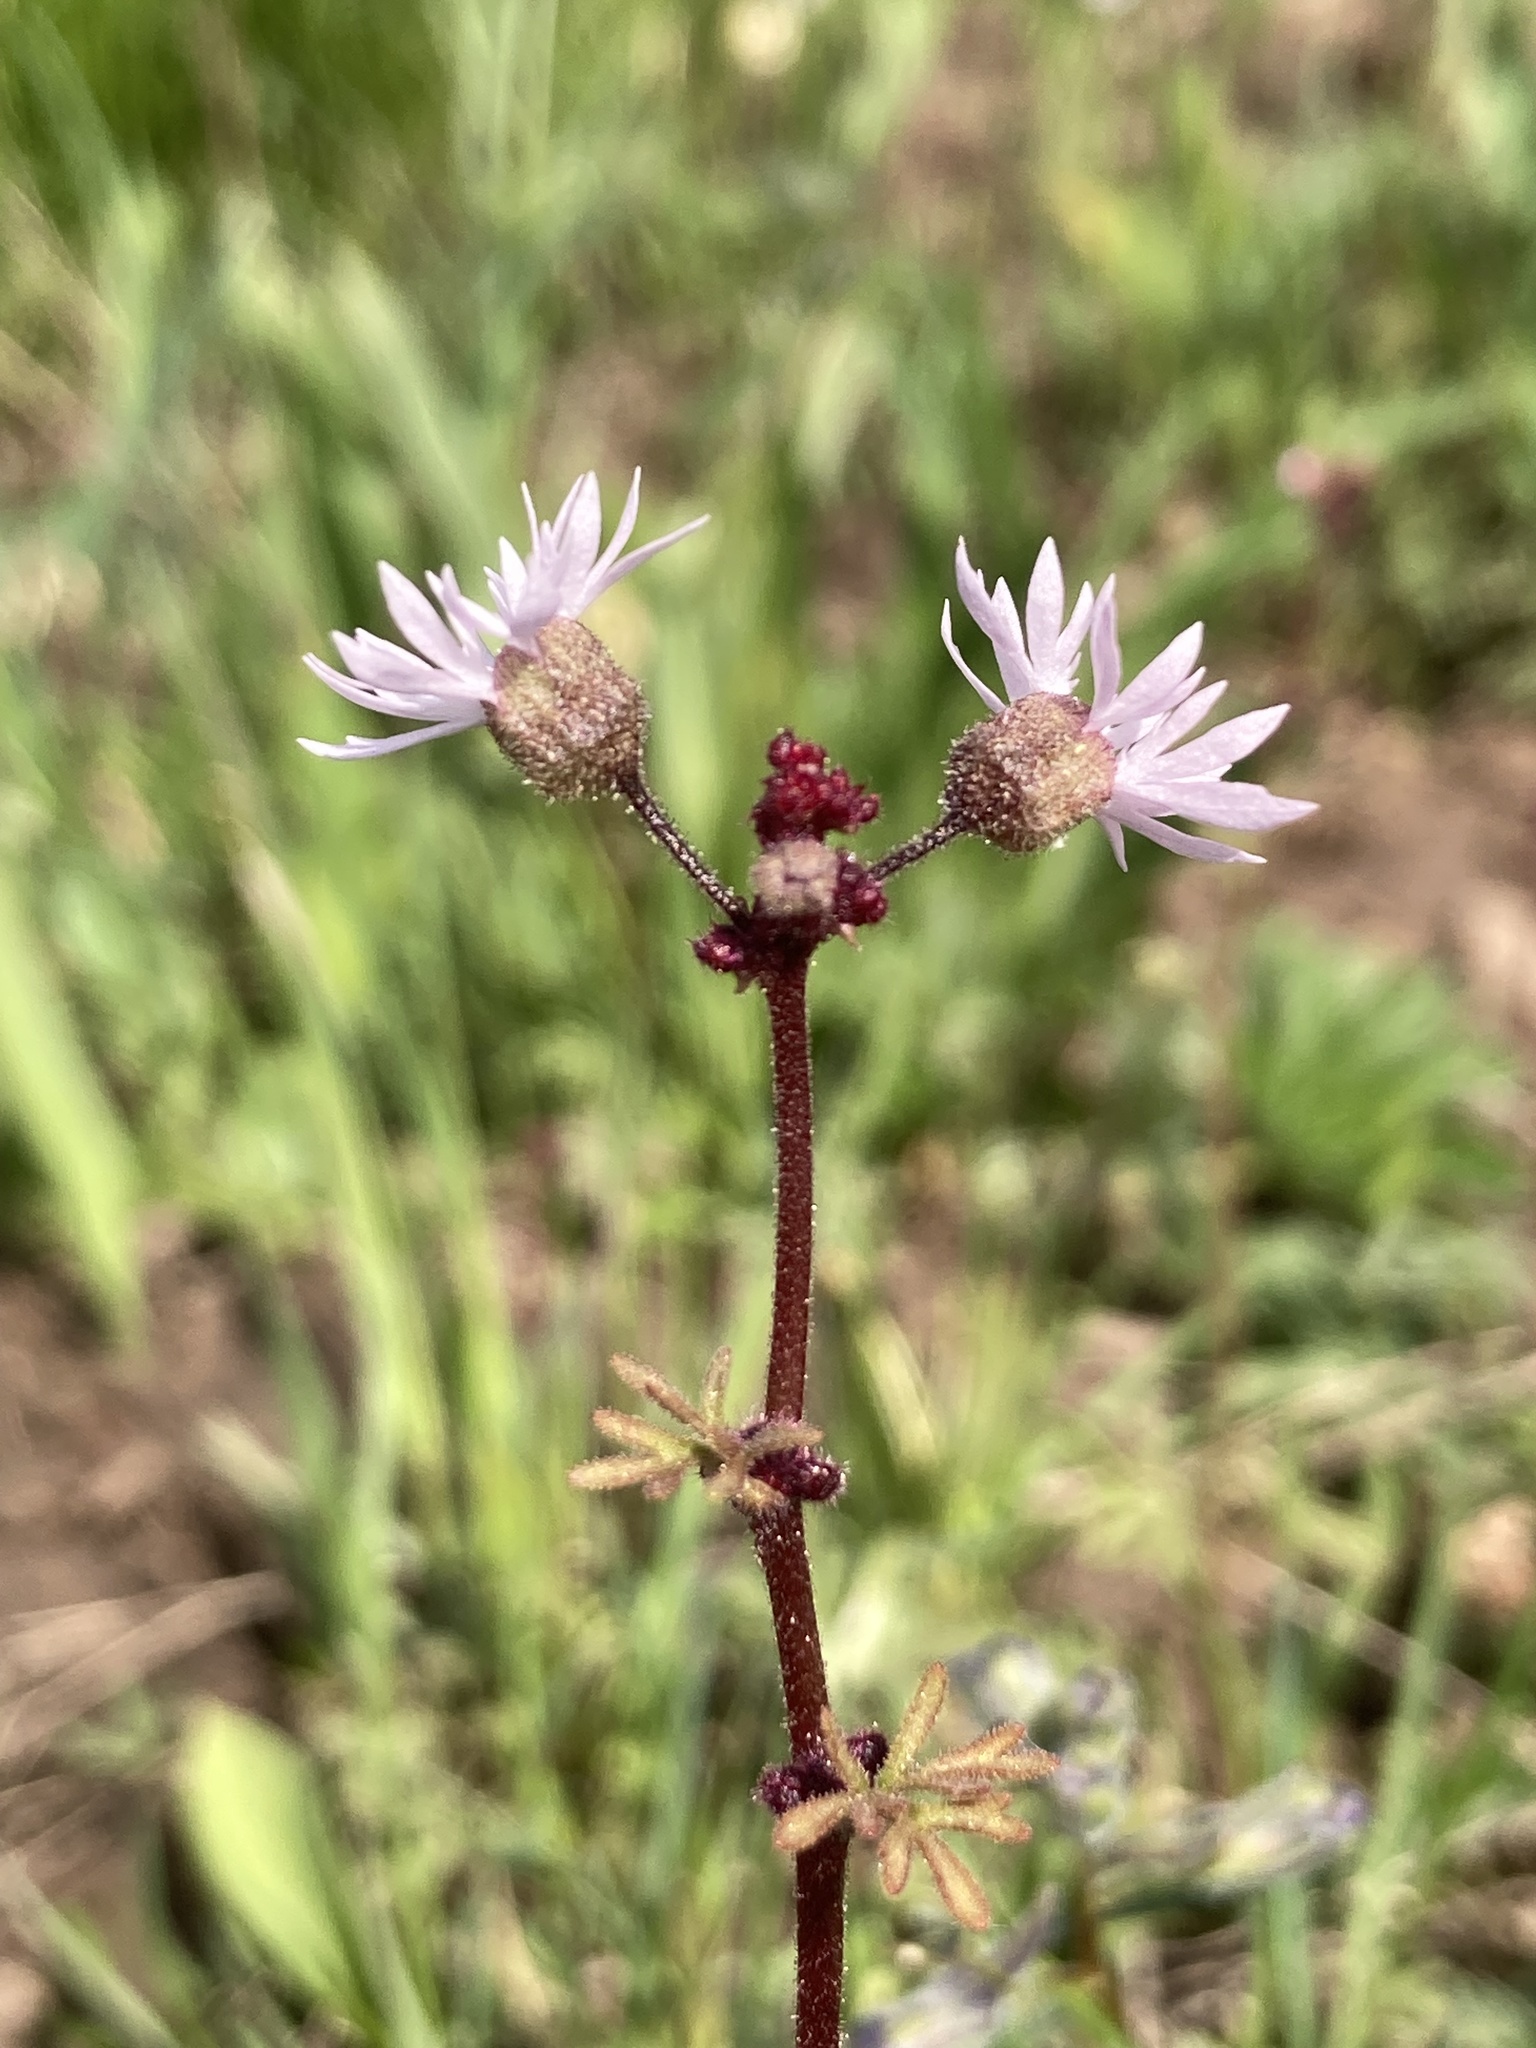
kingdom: Plantae
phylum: Tracheophyta
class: Magnoliopsida
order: Saxifragales
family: Saxifragaceae
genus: Lithophragma
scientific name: Lithophragma glabrum
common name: Bulbous prairie-star
